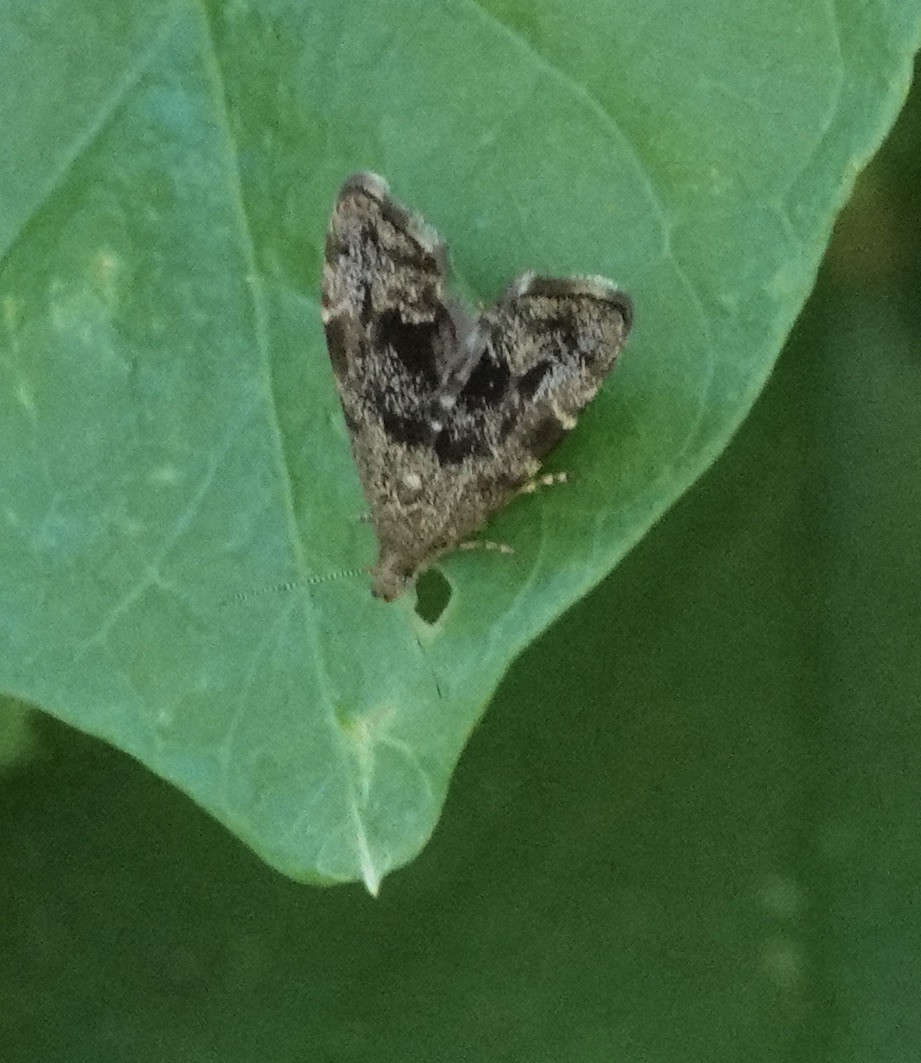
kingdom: Animalia
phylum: Arthropoda
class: Insecta
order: Lepidoptera
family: Choreutidae
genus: Anthophila
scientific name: Anthophila fabriciana
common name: Nettle-tap
